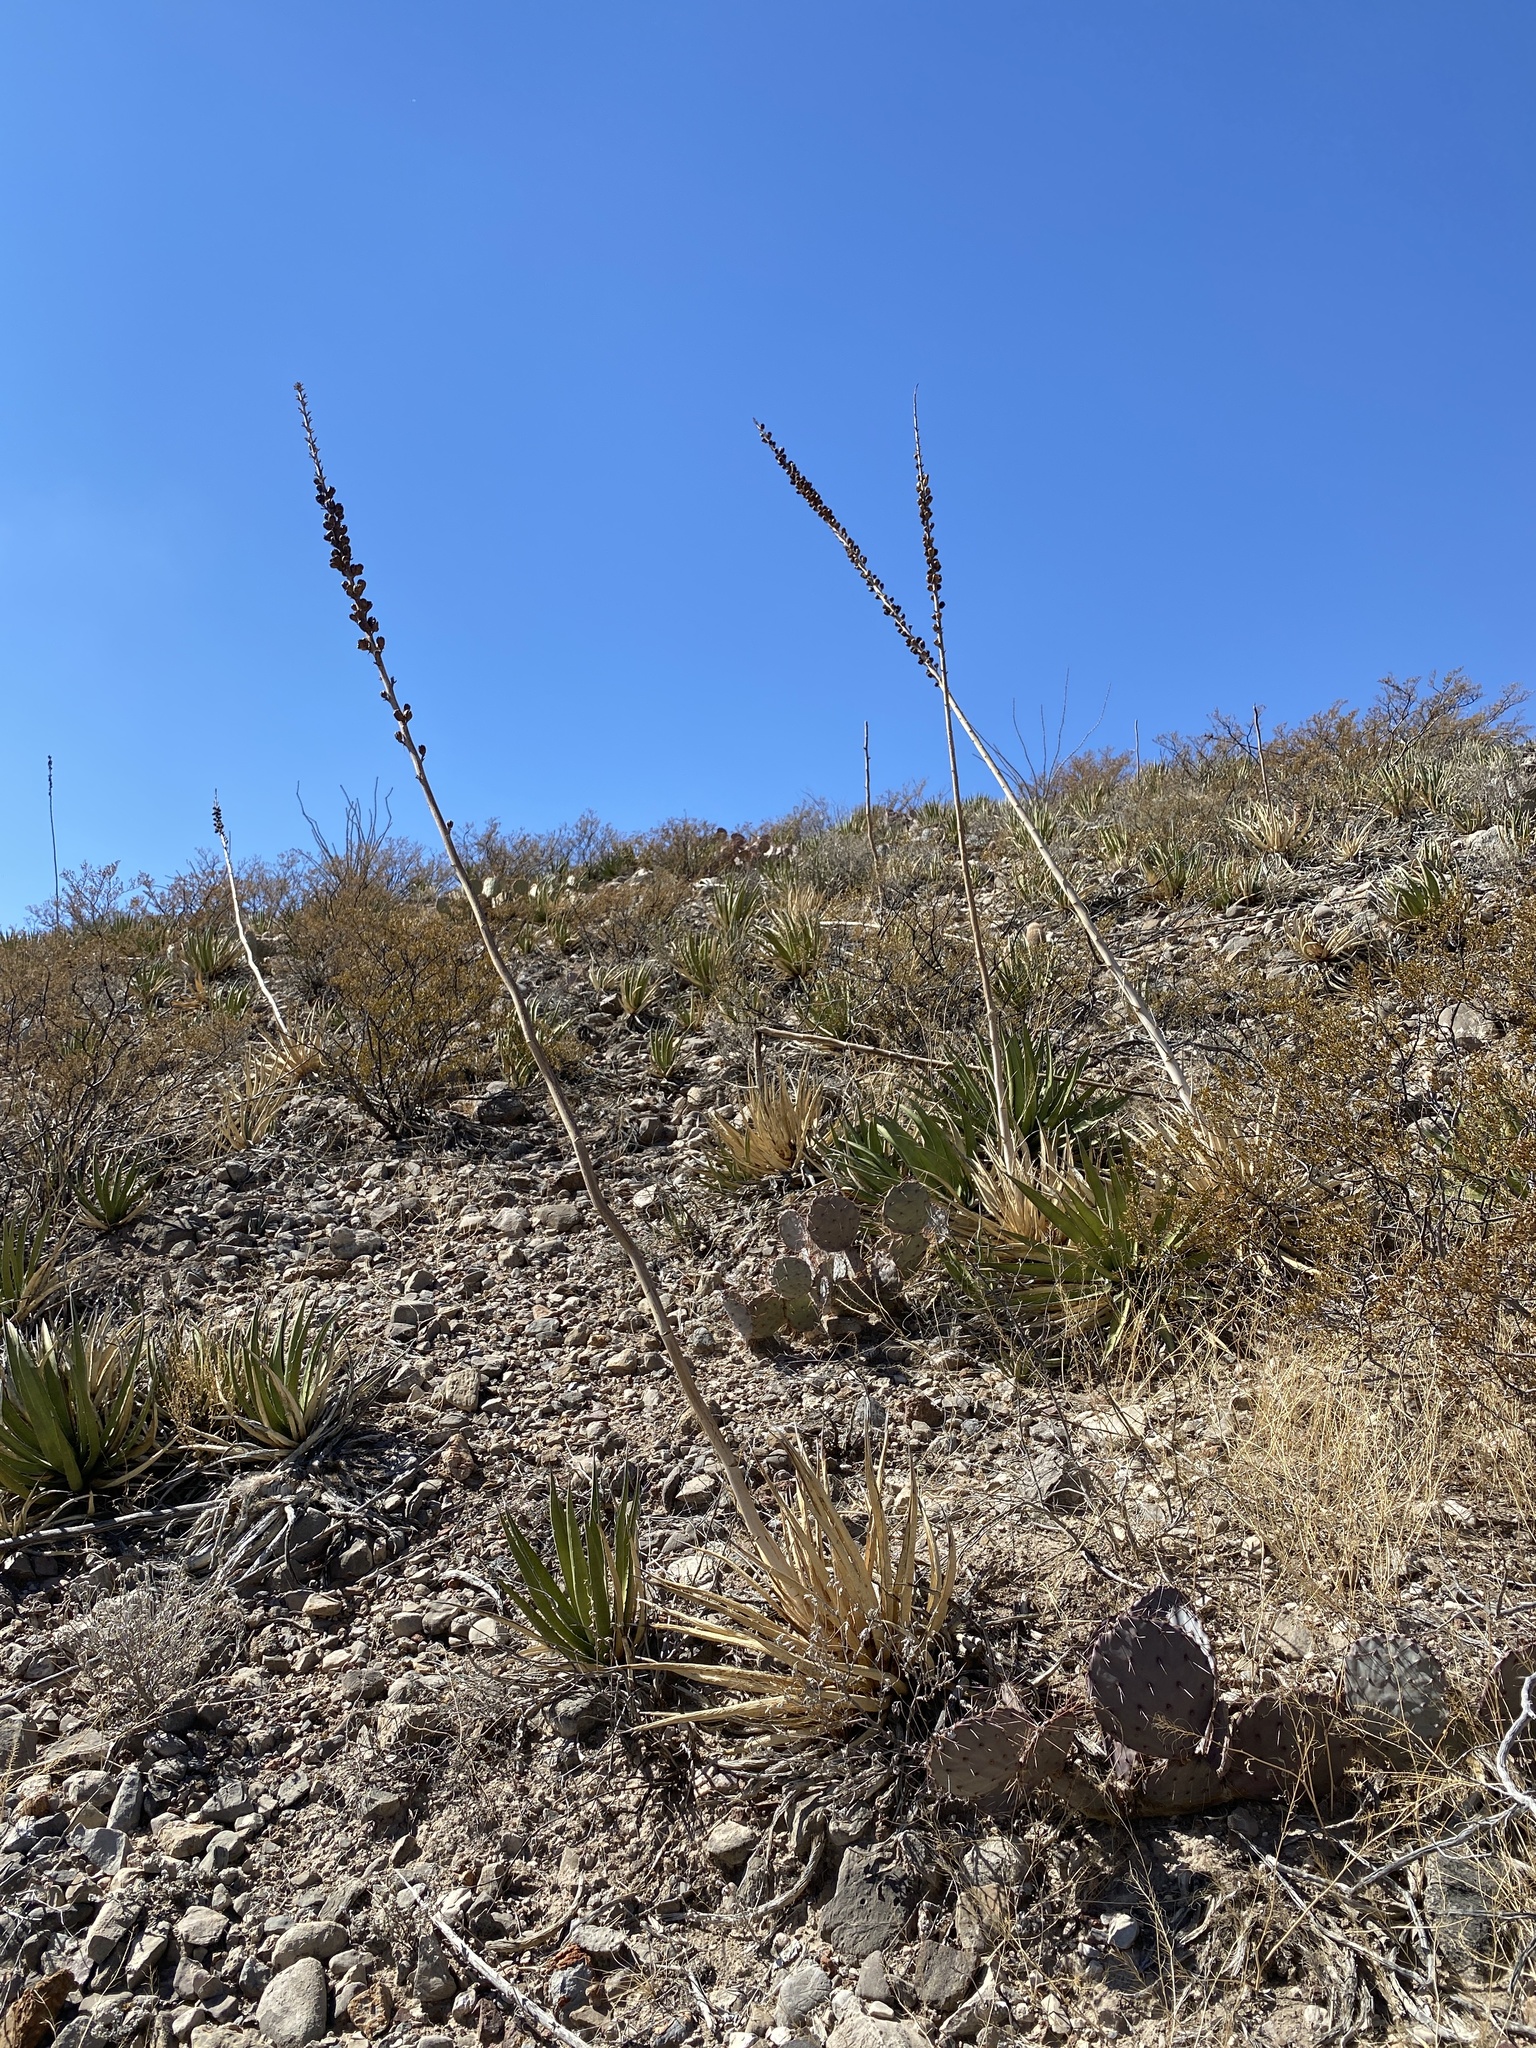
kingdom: Plantae
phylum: Tracheophyta
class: Liliopsida
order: Asparagales
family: Asparagaceae
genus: Agave
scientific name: Agave lechuguilla
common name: Lecheguilla agave
